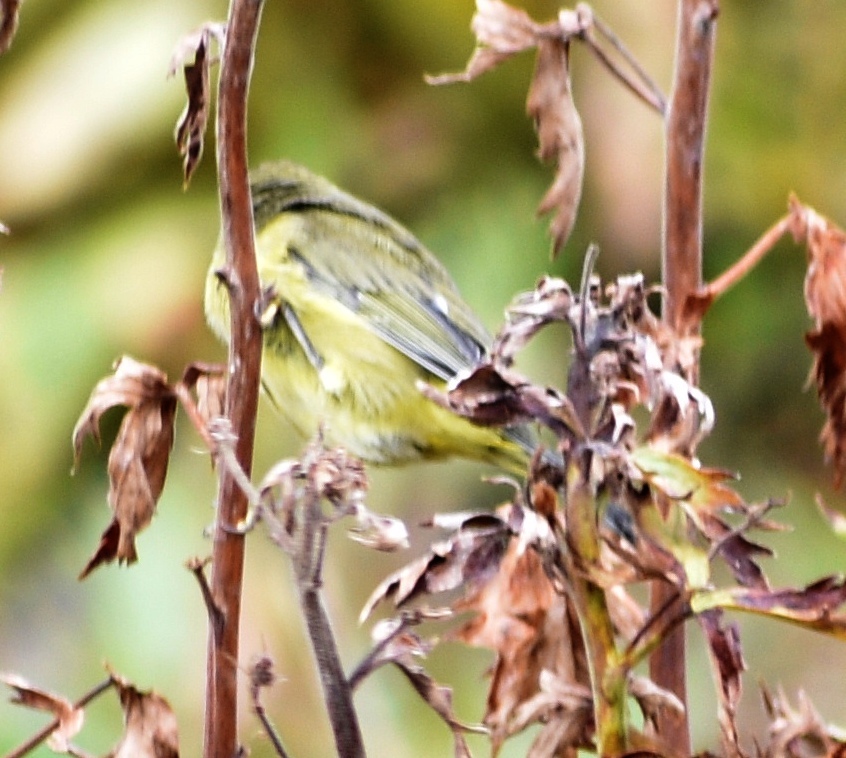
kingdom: Animalia
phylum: Chordata
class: Aves
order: Passeriformes
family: Parulidae
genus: Leiothlypis
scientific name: Leiothlypis celata
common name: Orange-crowned warbler
